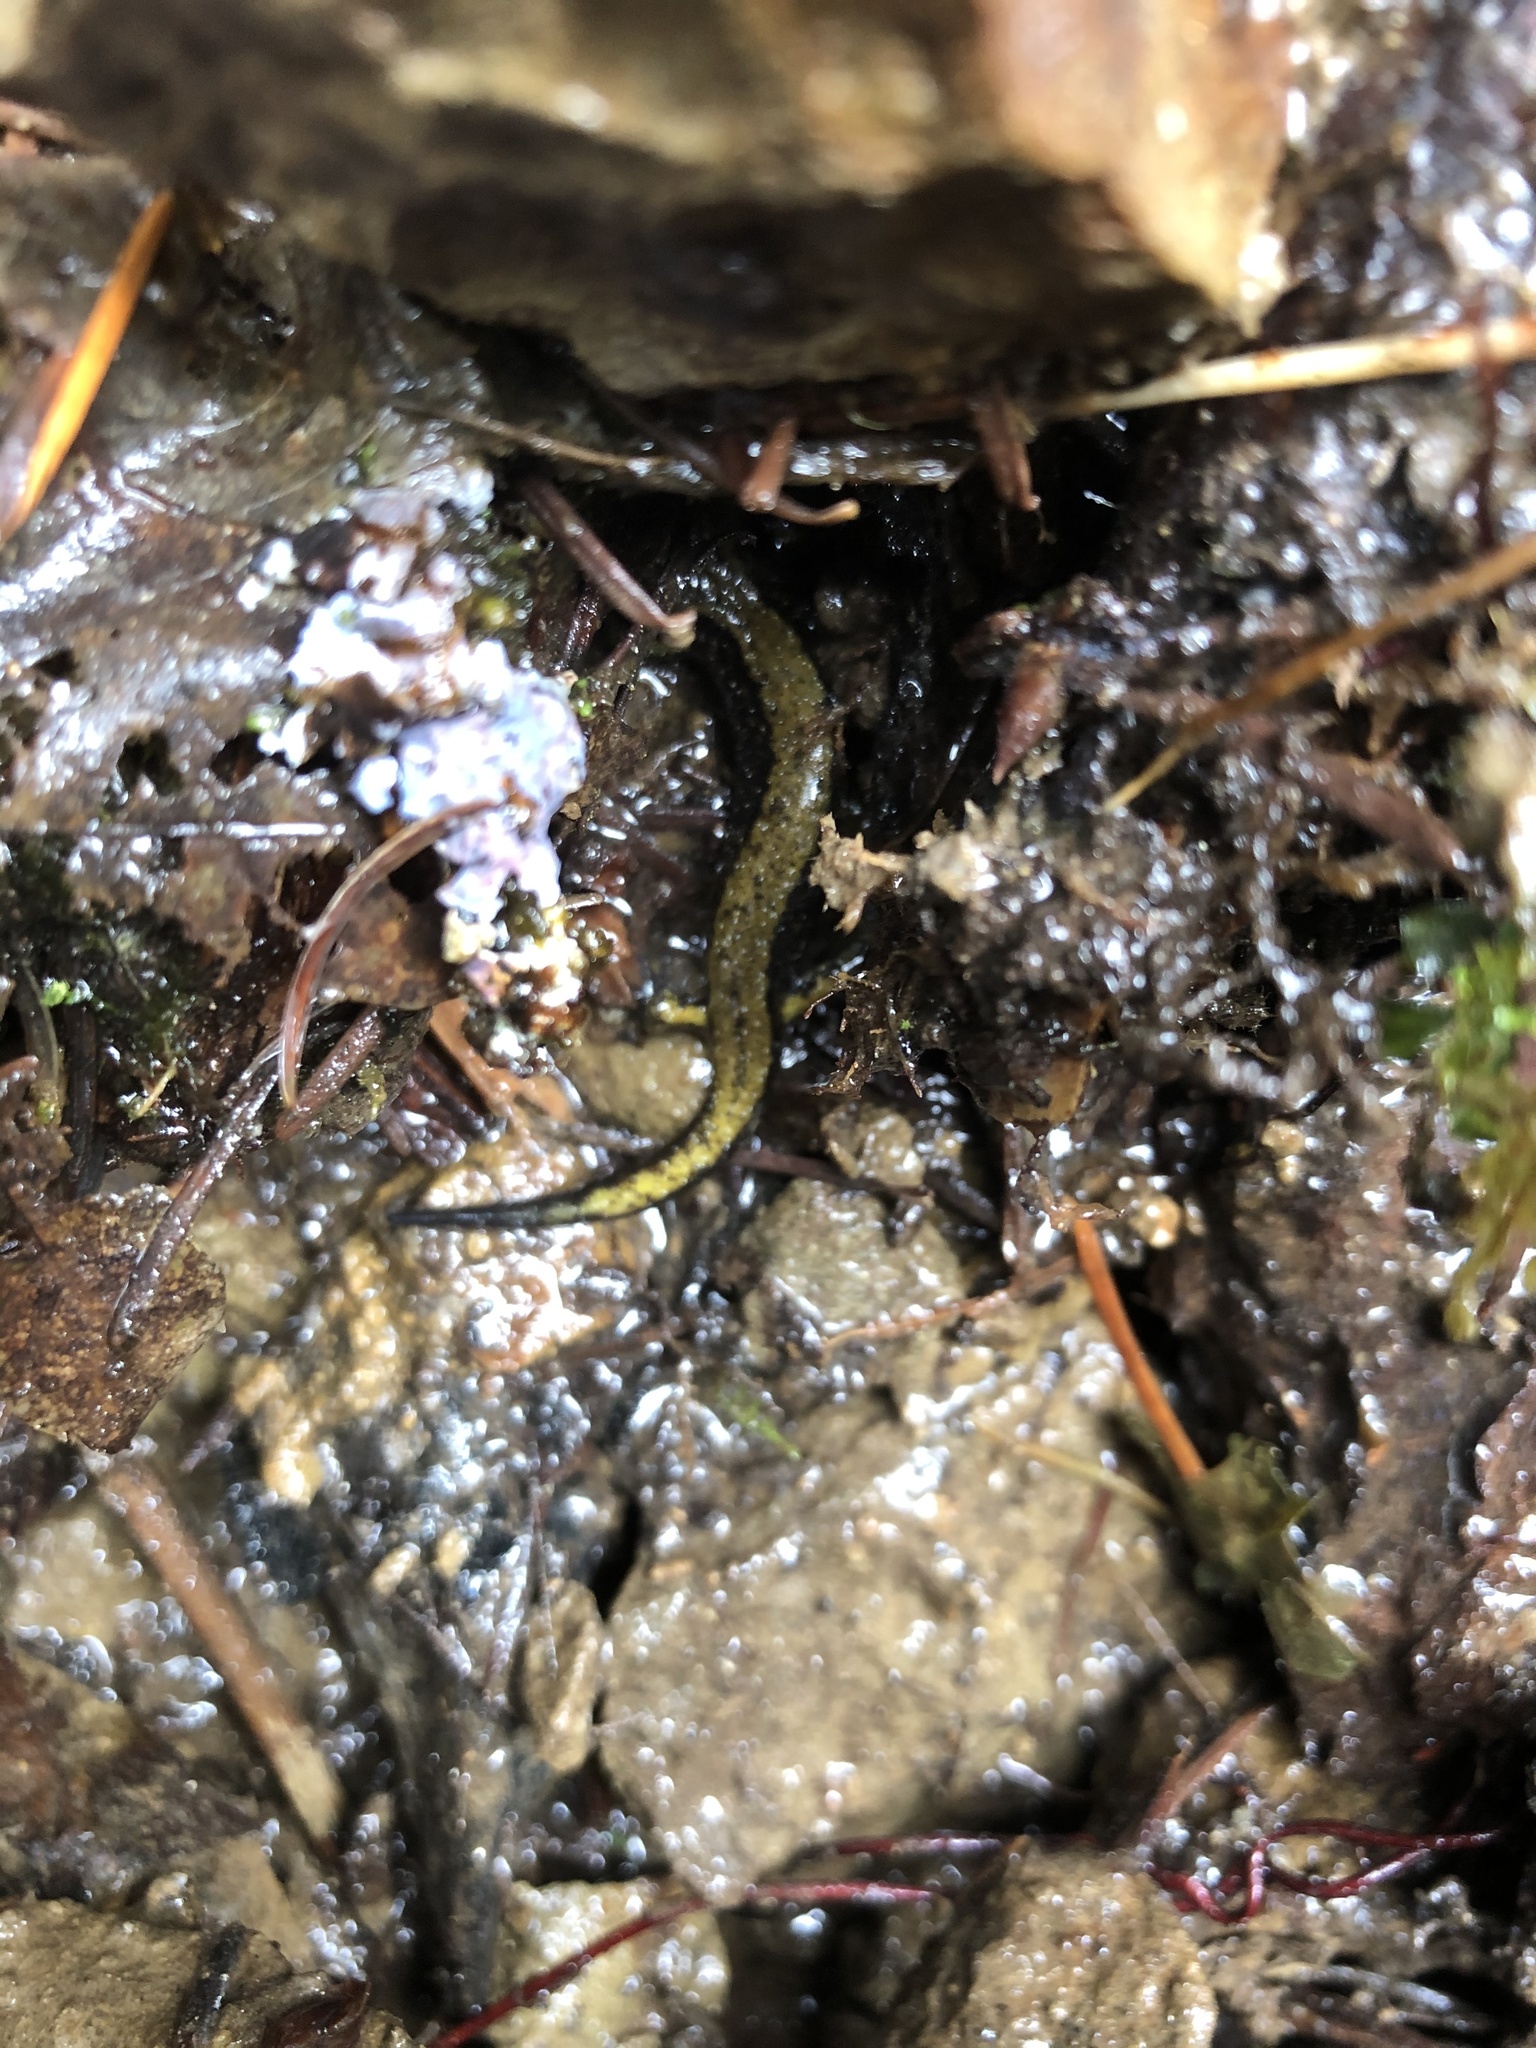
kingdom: Animalia
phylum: Chordata
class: Amphibia
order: Caudata
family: Plethodontidae
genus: Plethodon
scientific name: Plethodon dunni
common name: Dunn's salamander
